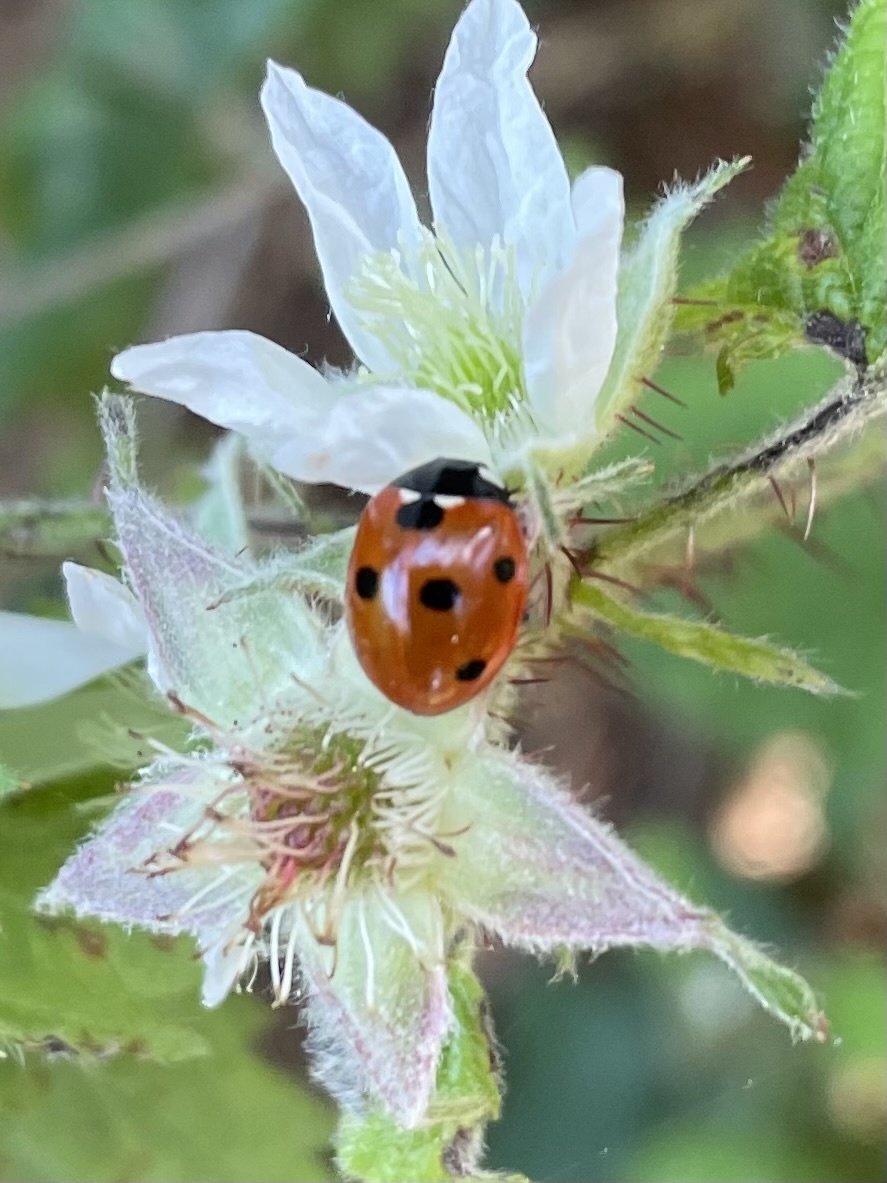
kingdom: Animalia
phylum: Arthropoda
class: Insecta
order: Coleoptera
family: Coccinellidae
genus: Coccinella
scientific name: Coccinella septempunctata
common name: Sevenspotted lady beetle
